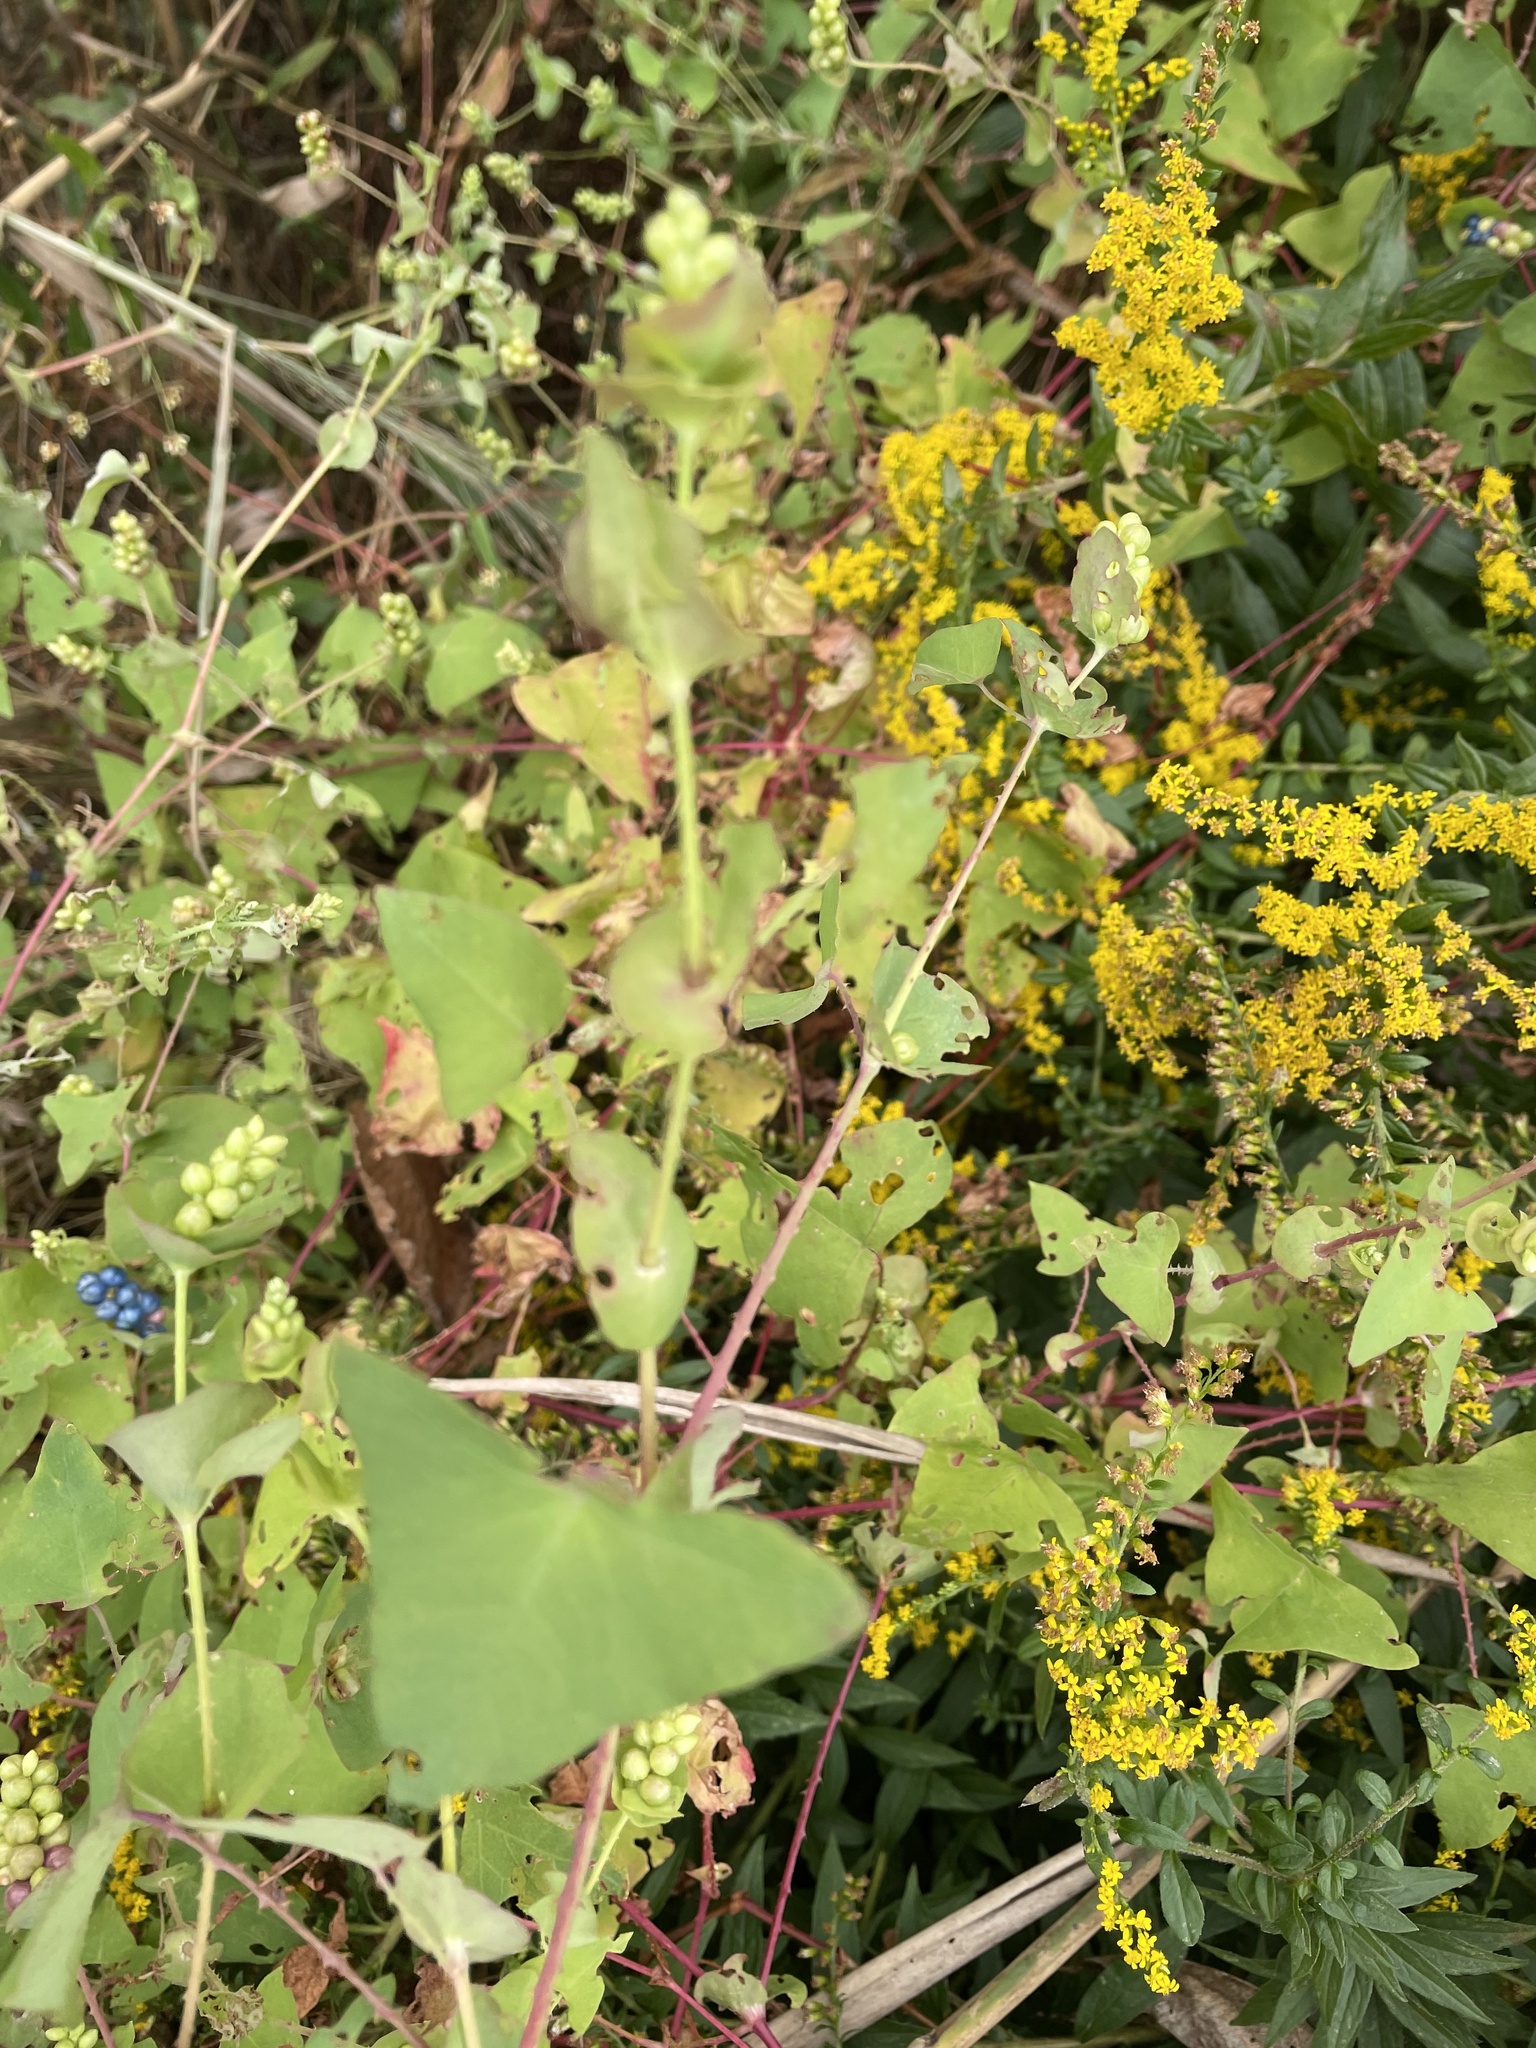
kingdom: Plantae
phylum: Tracheophyta
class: Magnoliopsida
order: Caryophyllales
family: Polygonaceae
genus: Persicaria
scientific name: Persicaria perfoliata
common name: Asiatic tearthumb
